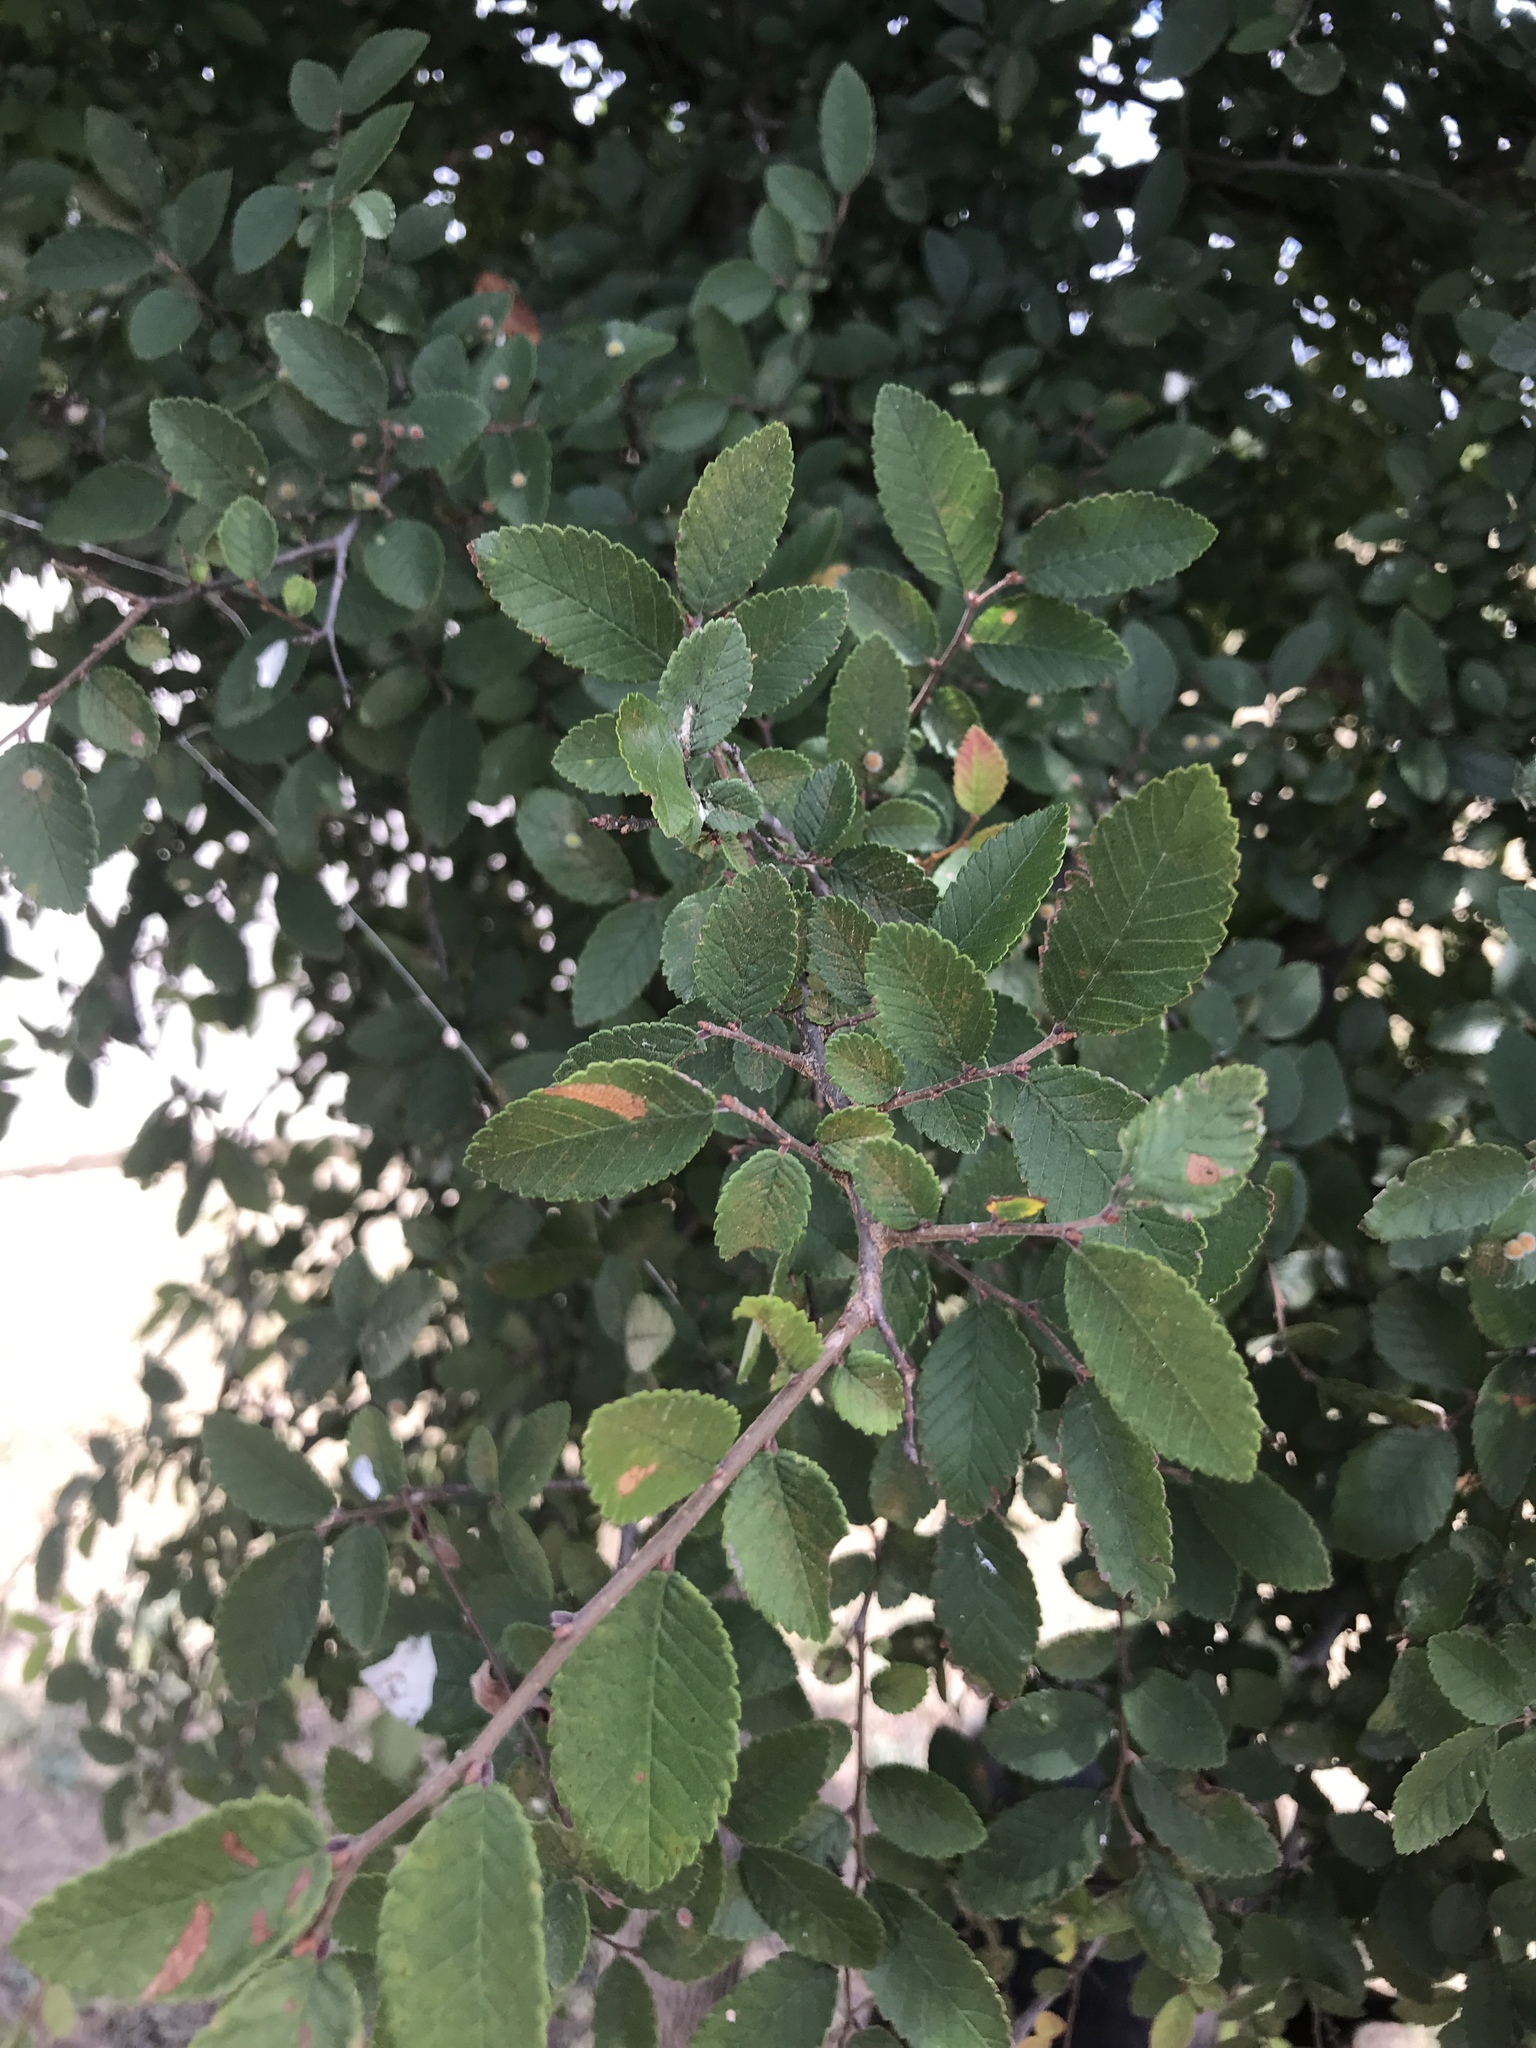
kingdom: Plantae
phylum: Tracheophyta
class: Magnoliopsida
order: Rosales
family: Ulmaceae
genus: Ulmus
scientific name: Ulmus crassifolia
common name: Basket elm
